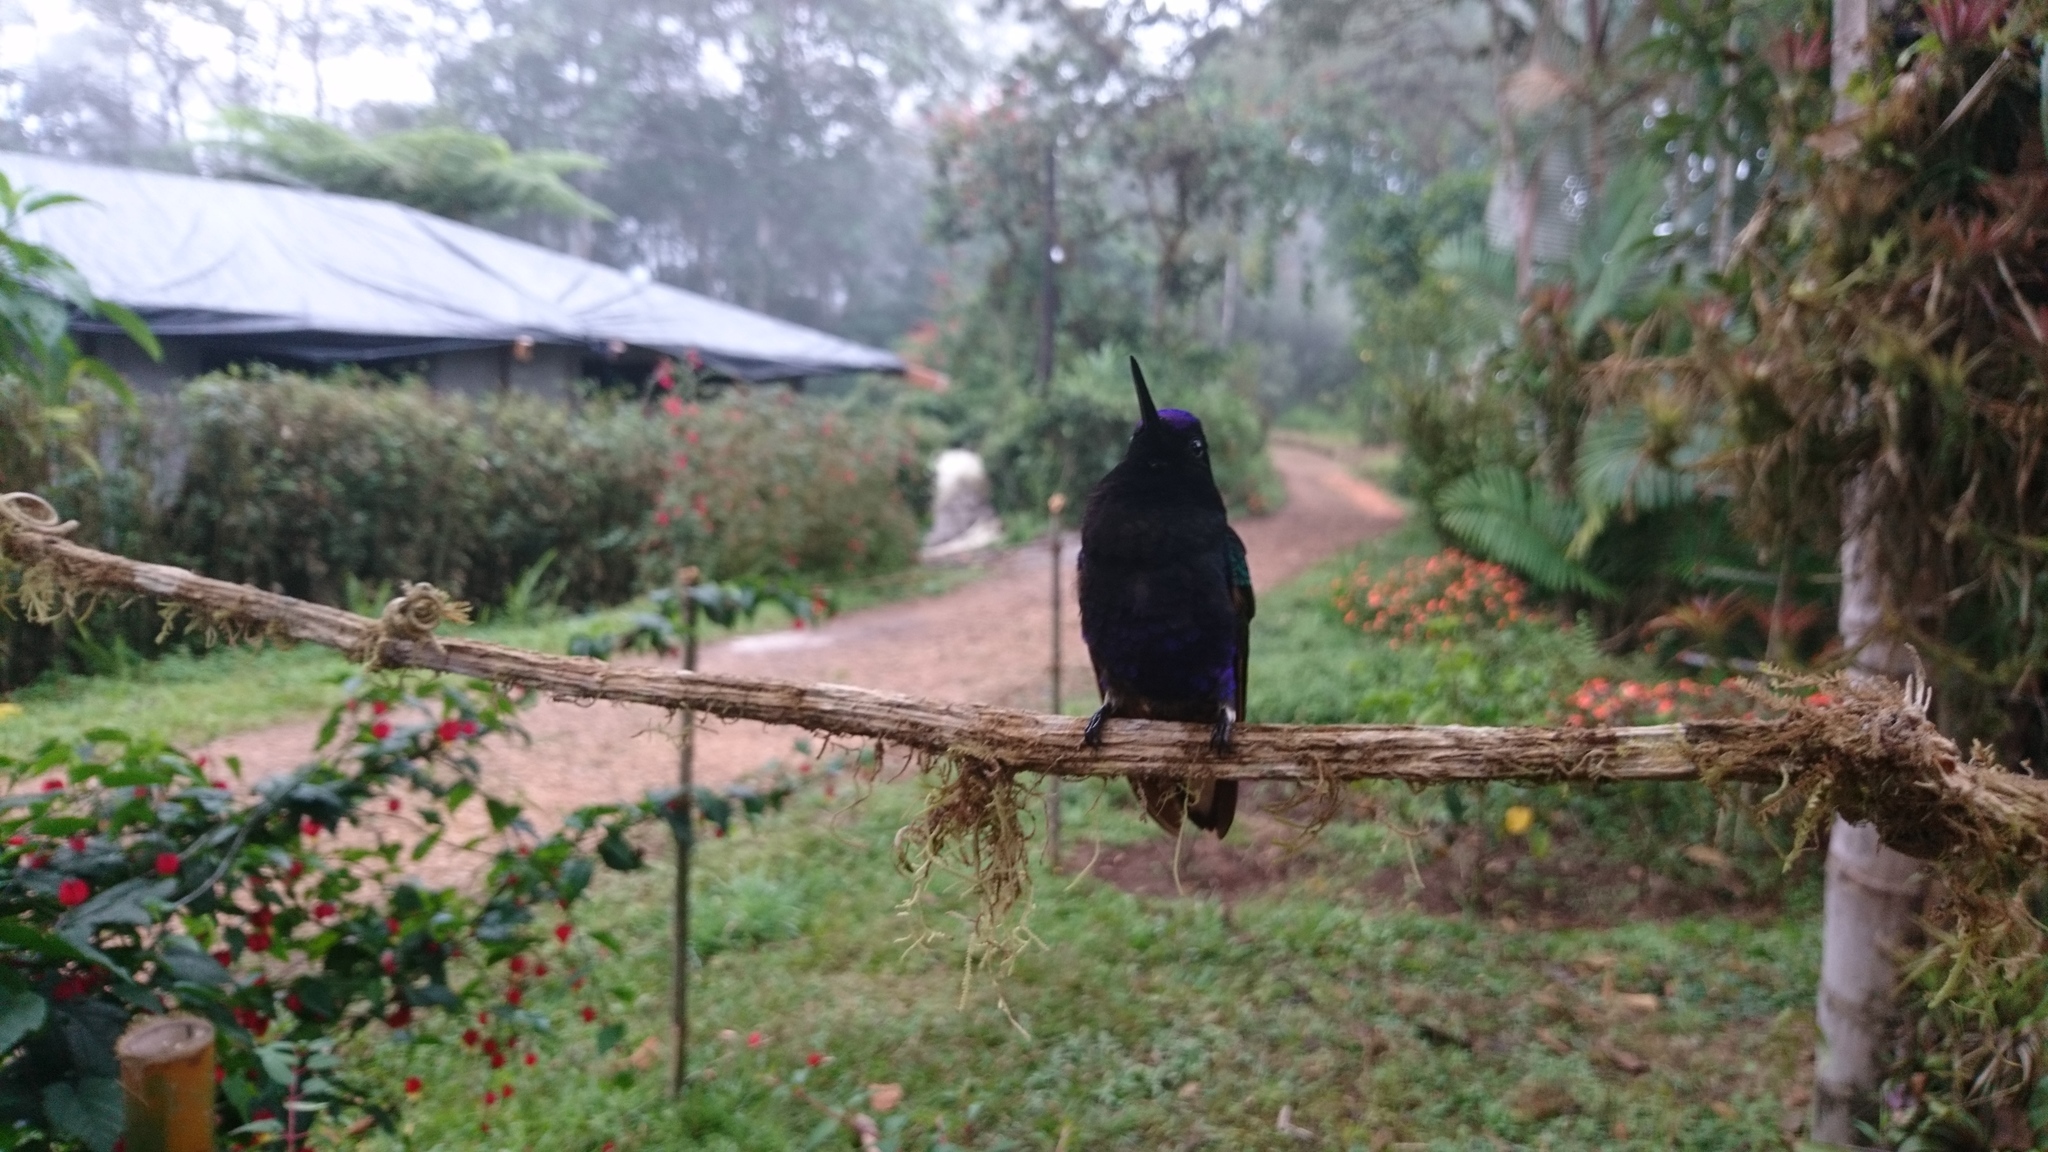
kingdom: Animalia
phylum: Chordata
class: Aves
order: Apodiformes
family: Trochilidae
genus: Boissonneaua
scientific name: Boissonneaua jardini
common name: Velvet-purple coronet
